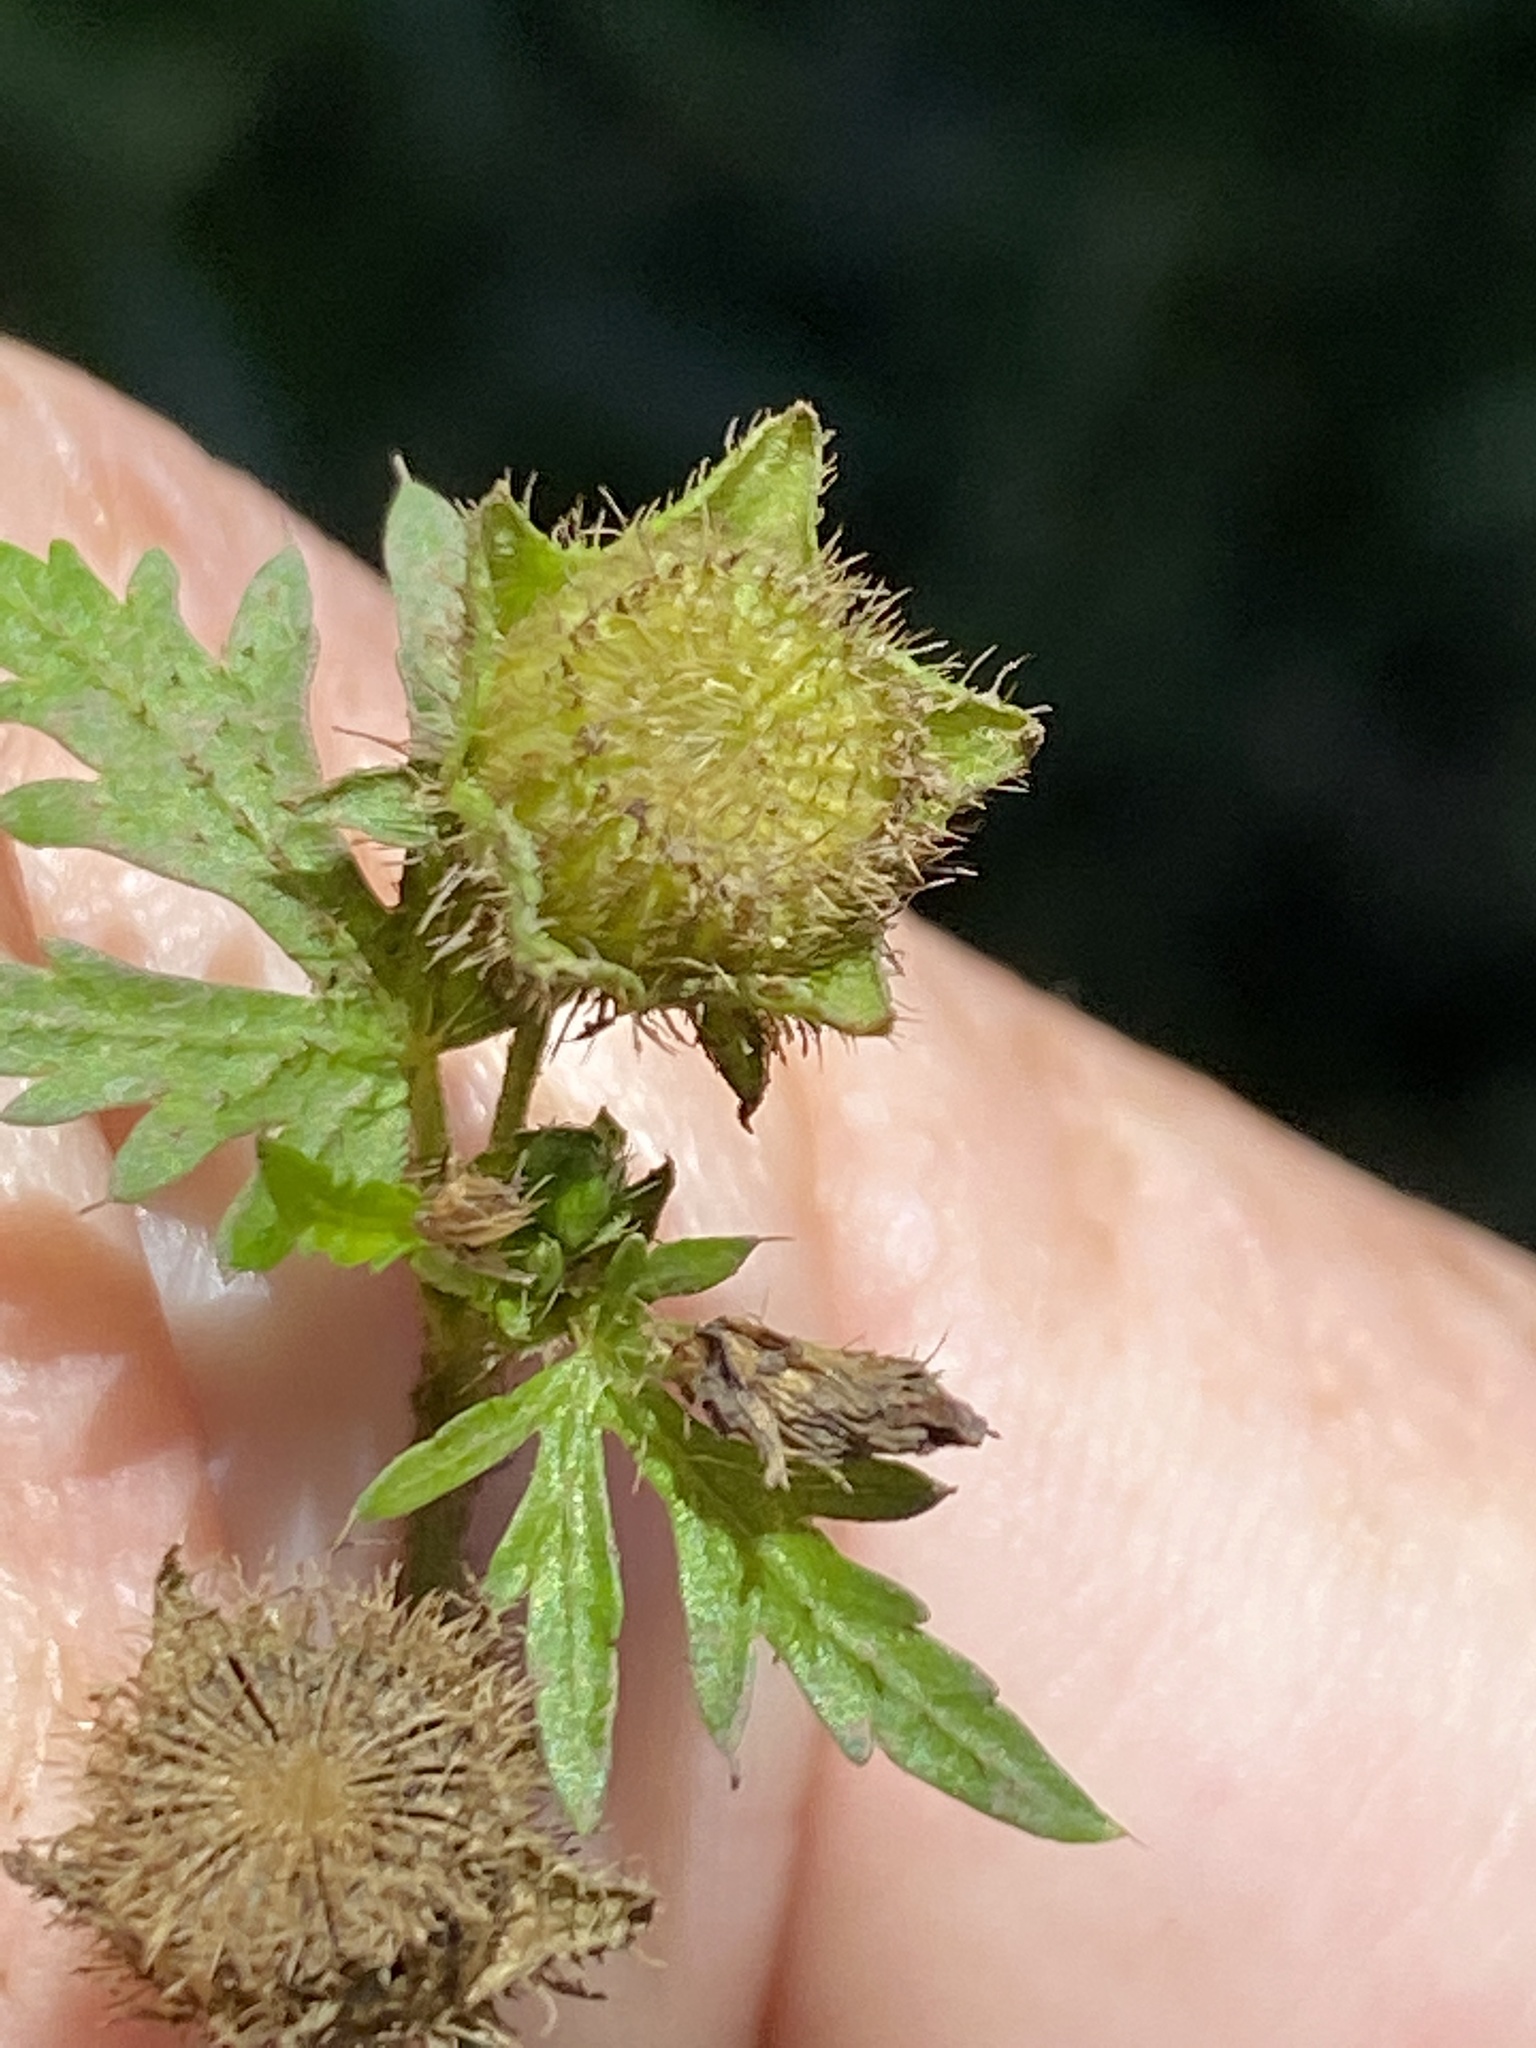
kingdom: Plantae
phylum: Tracheophyta
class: Magnoliopsida
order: Malvales
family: Malvaceae
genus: Modiola
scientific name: Modiola caroliniana
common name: Carolina bristlemallow
